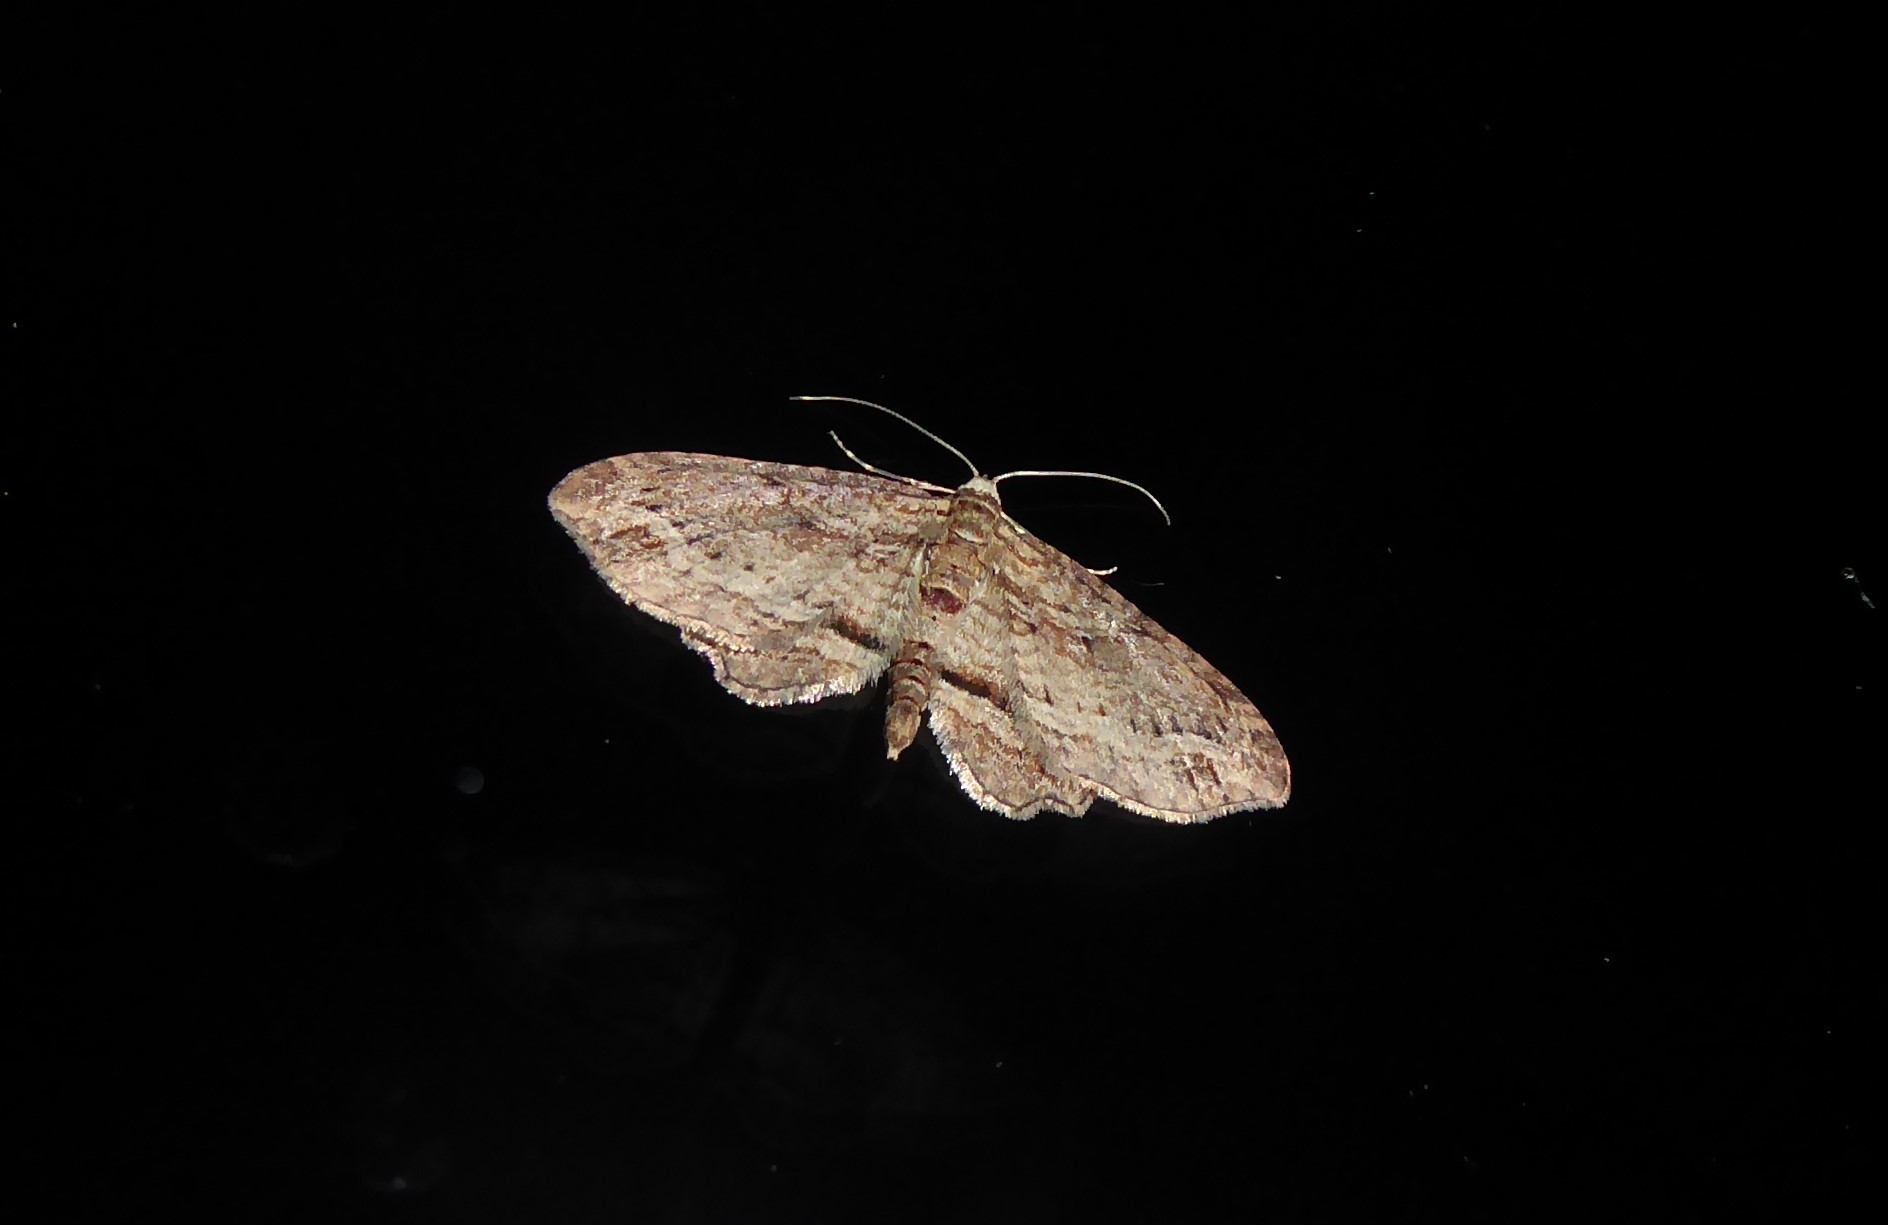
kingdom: Animalia
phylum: Arthropoda
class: Insecta
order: Lepidoptera
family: Geometridae
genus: Chloroclystis
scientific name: Chloroclystis filata
